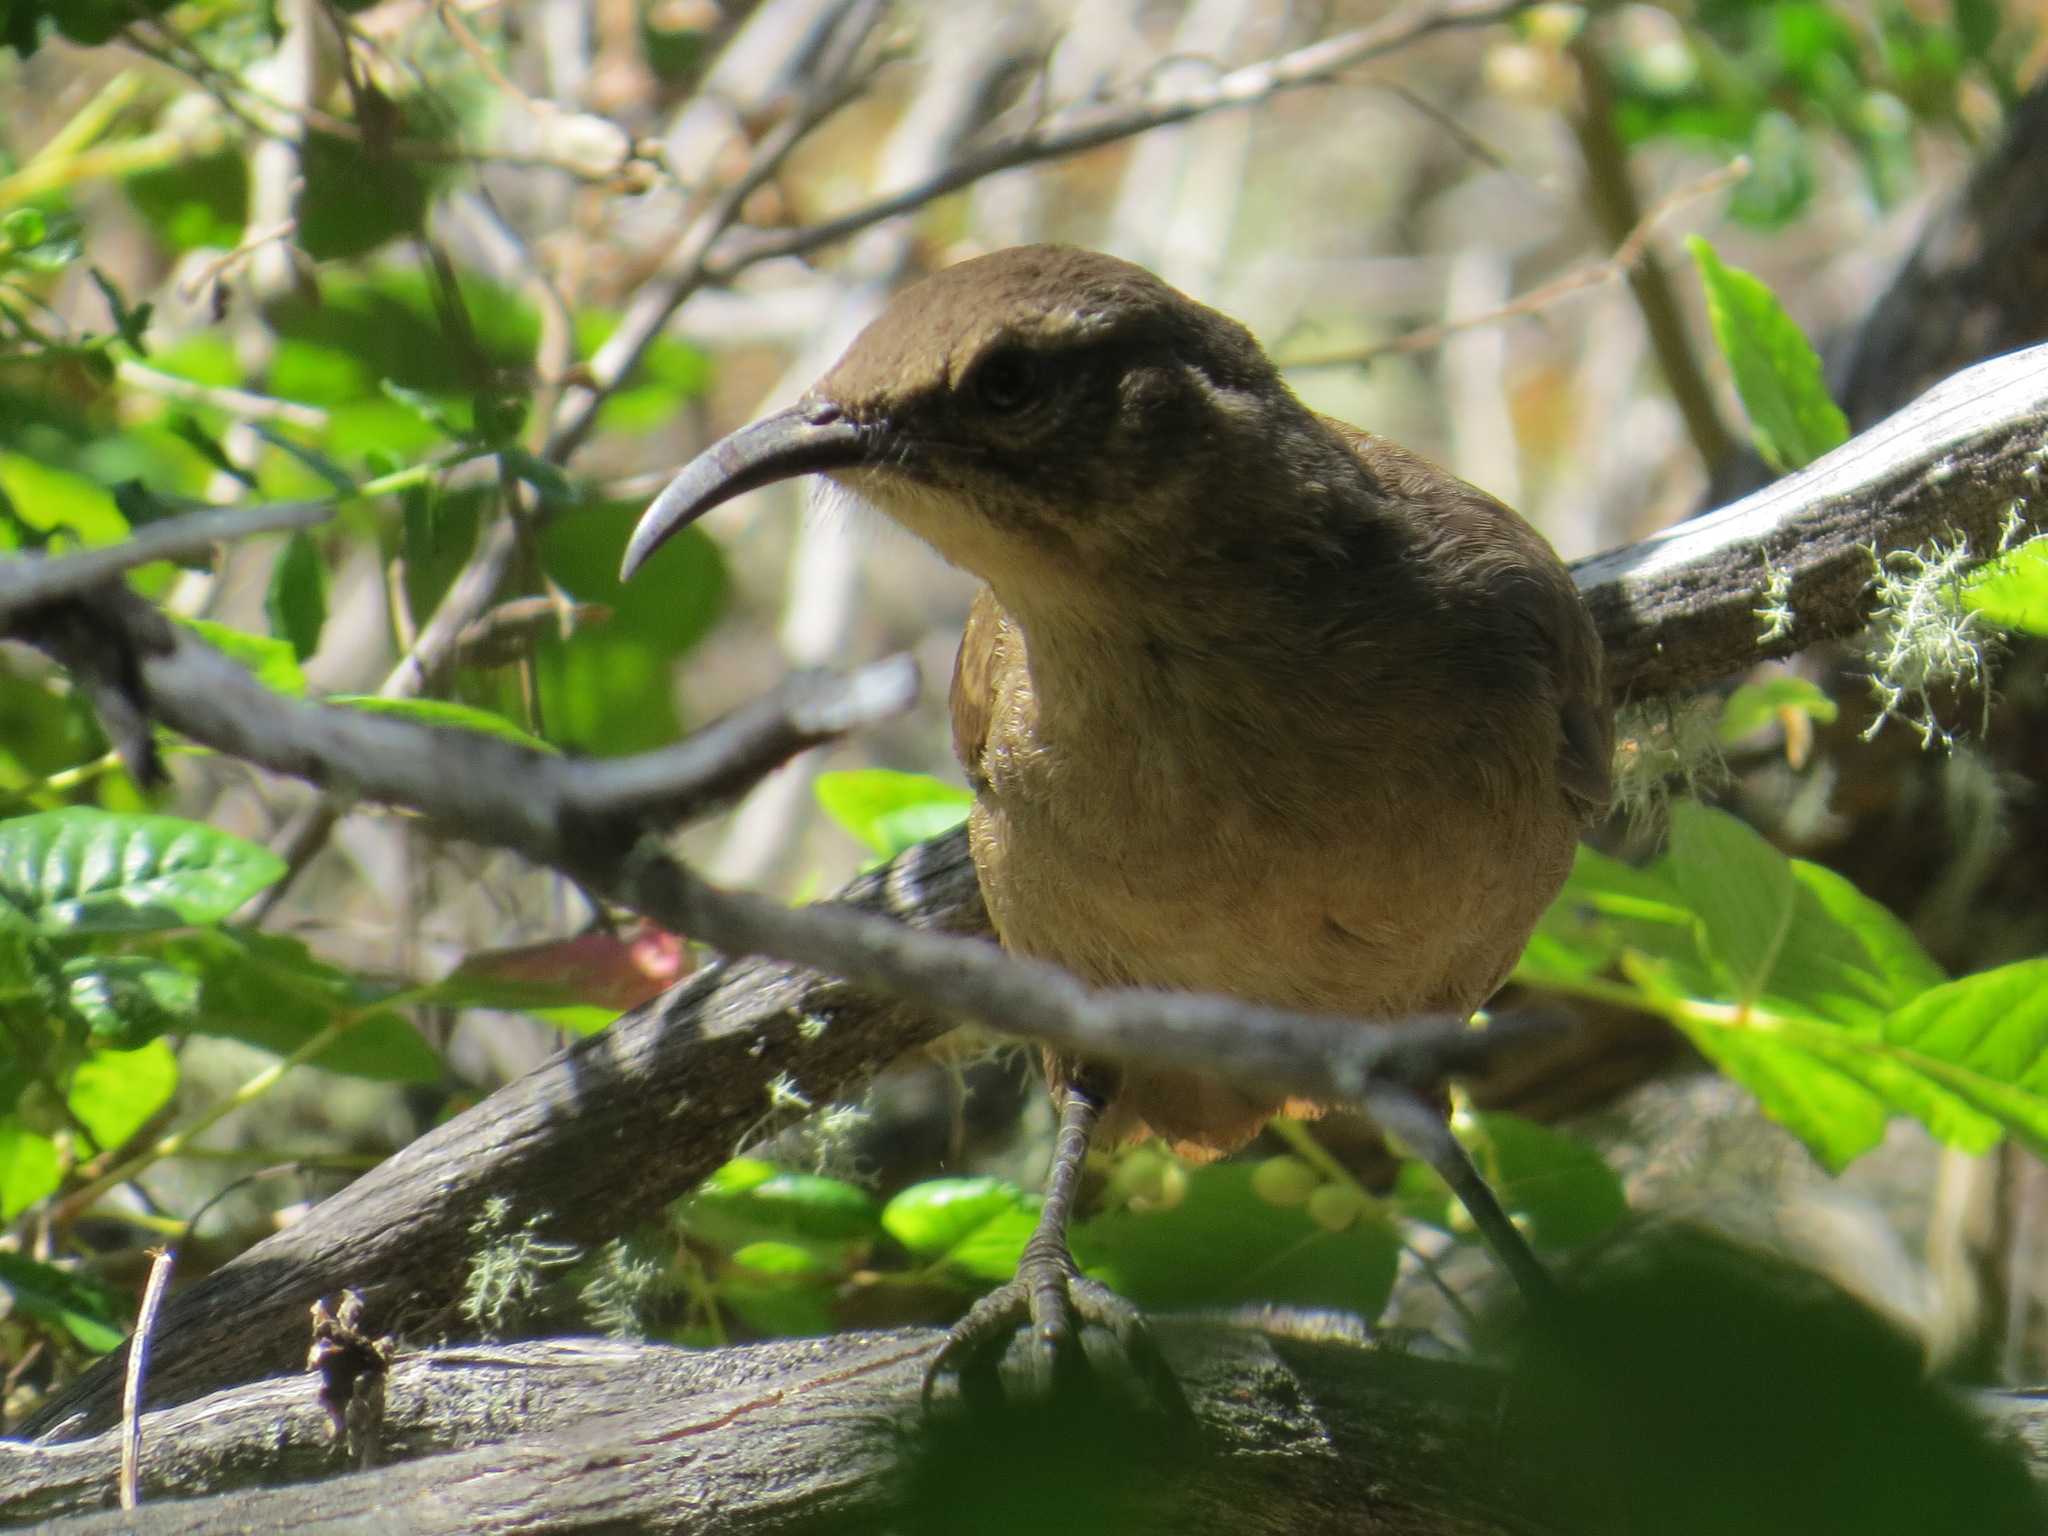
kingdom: Animalia
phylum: Chordata
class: Aves
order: Passeriformes
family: Mimidae
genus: Toxostoma
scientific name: Toxostoma redivivum
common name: California thrasher
